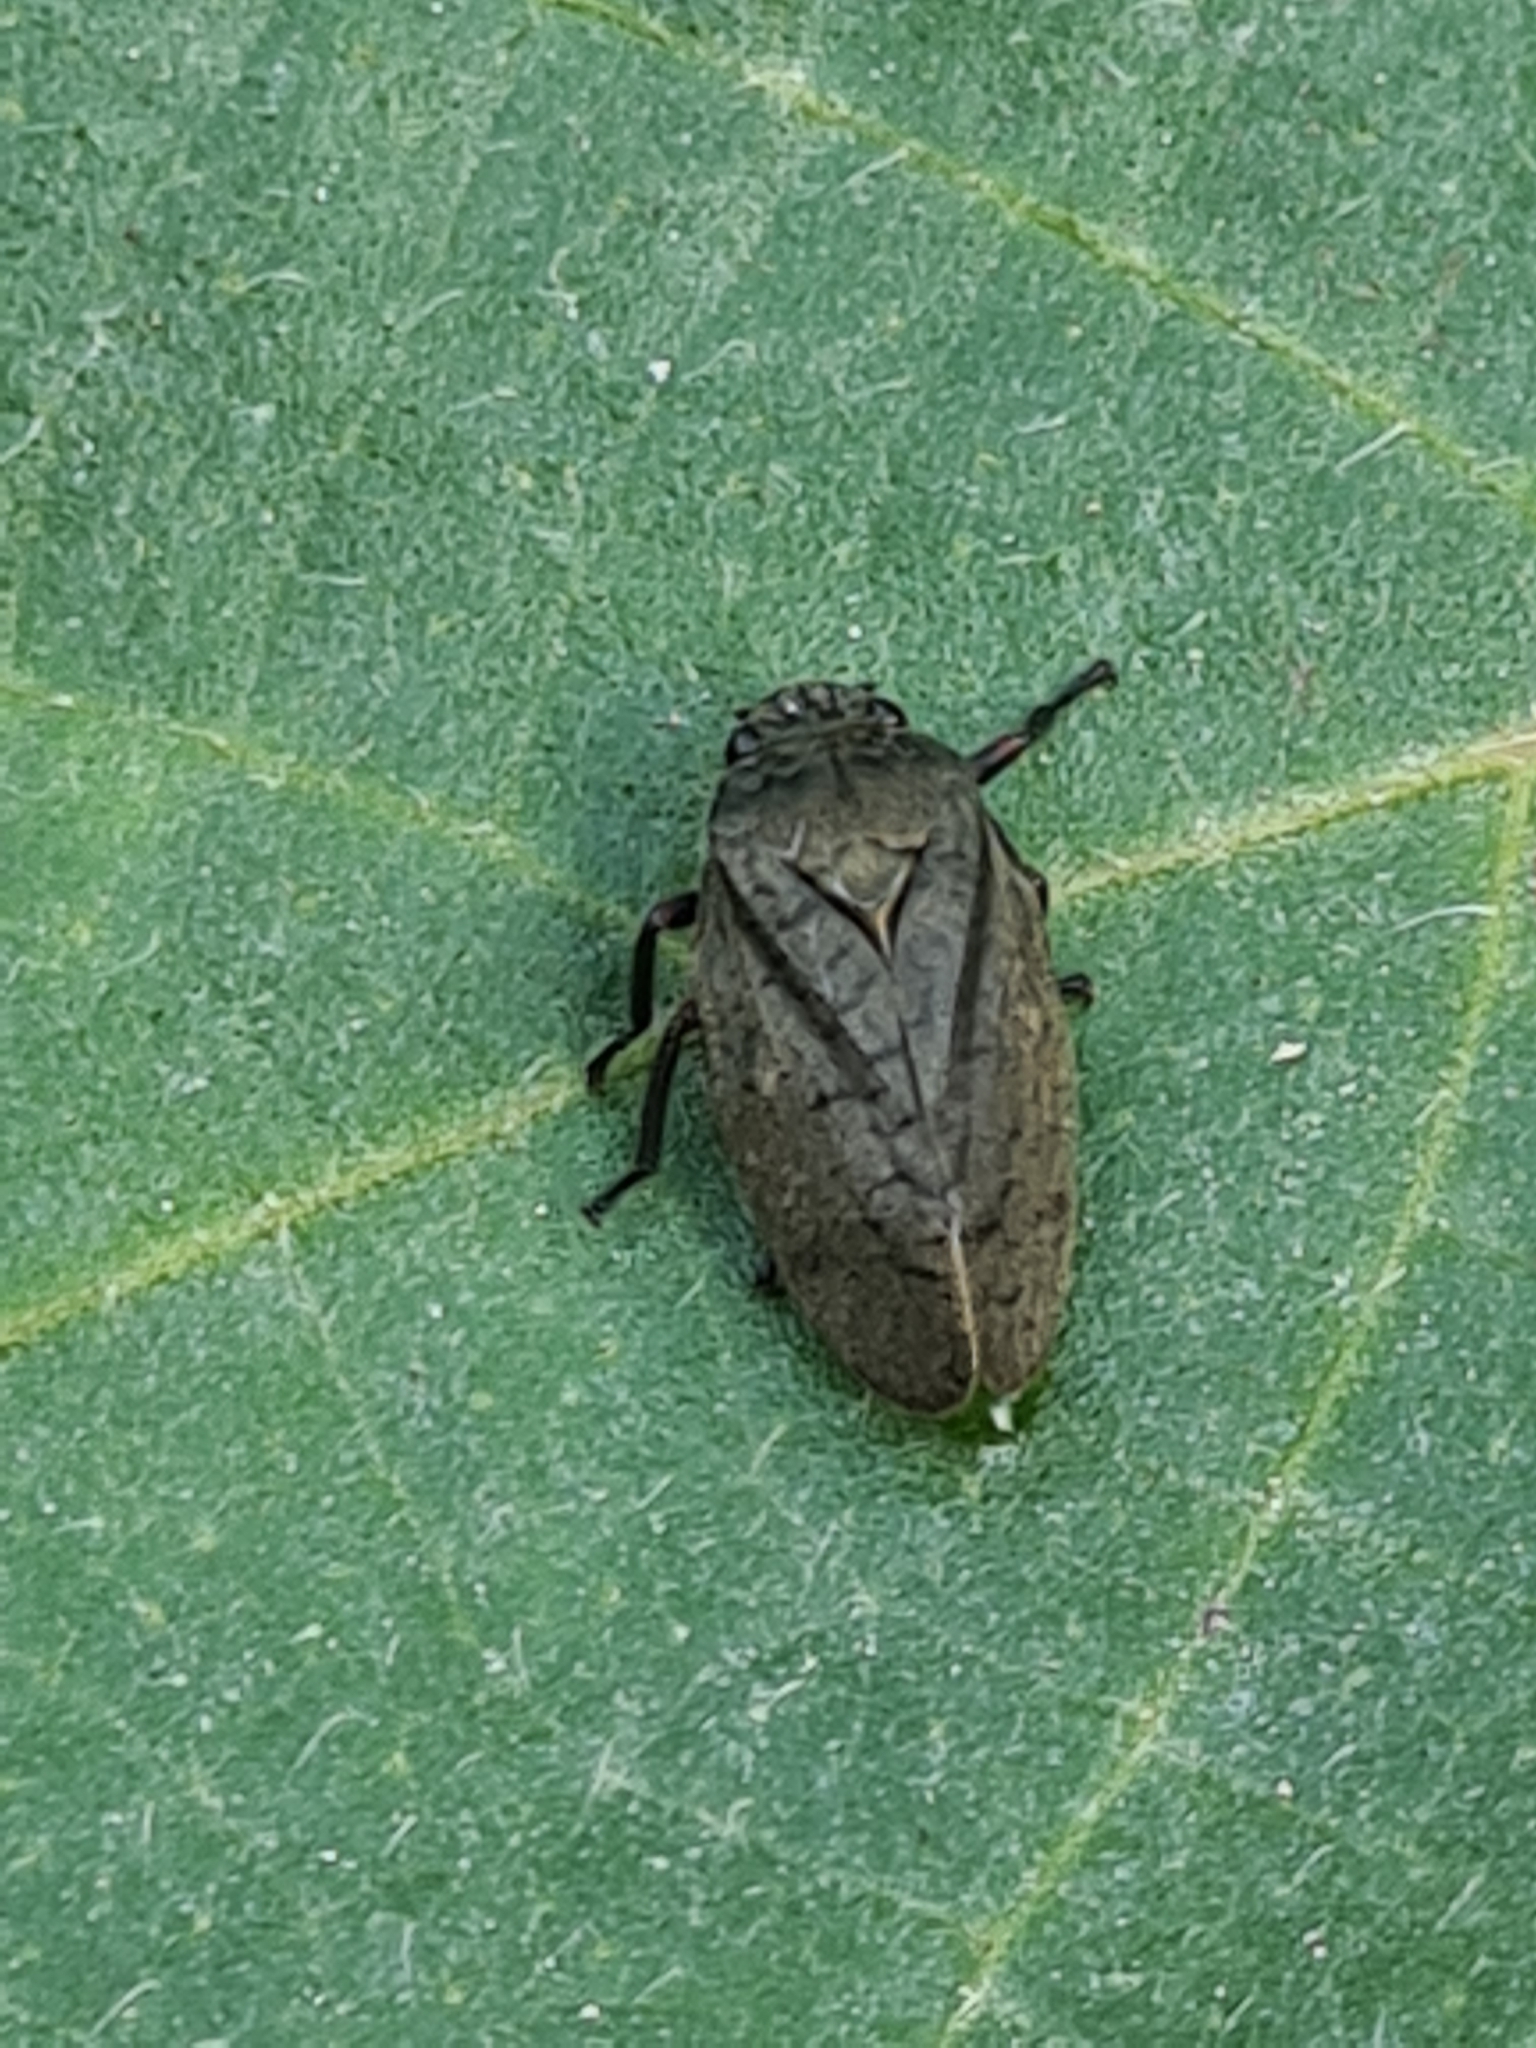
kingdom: Animalia
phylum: Arthropoda
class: Insecta
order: Hemiptera
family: Cercopidae
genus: Zulia
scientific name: Zulia pubescens
